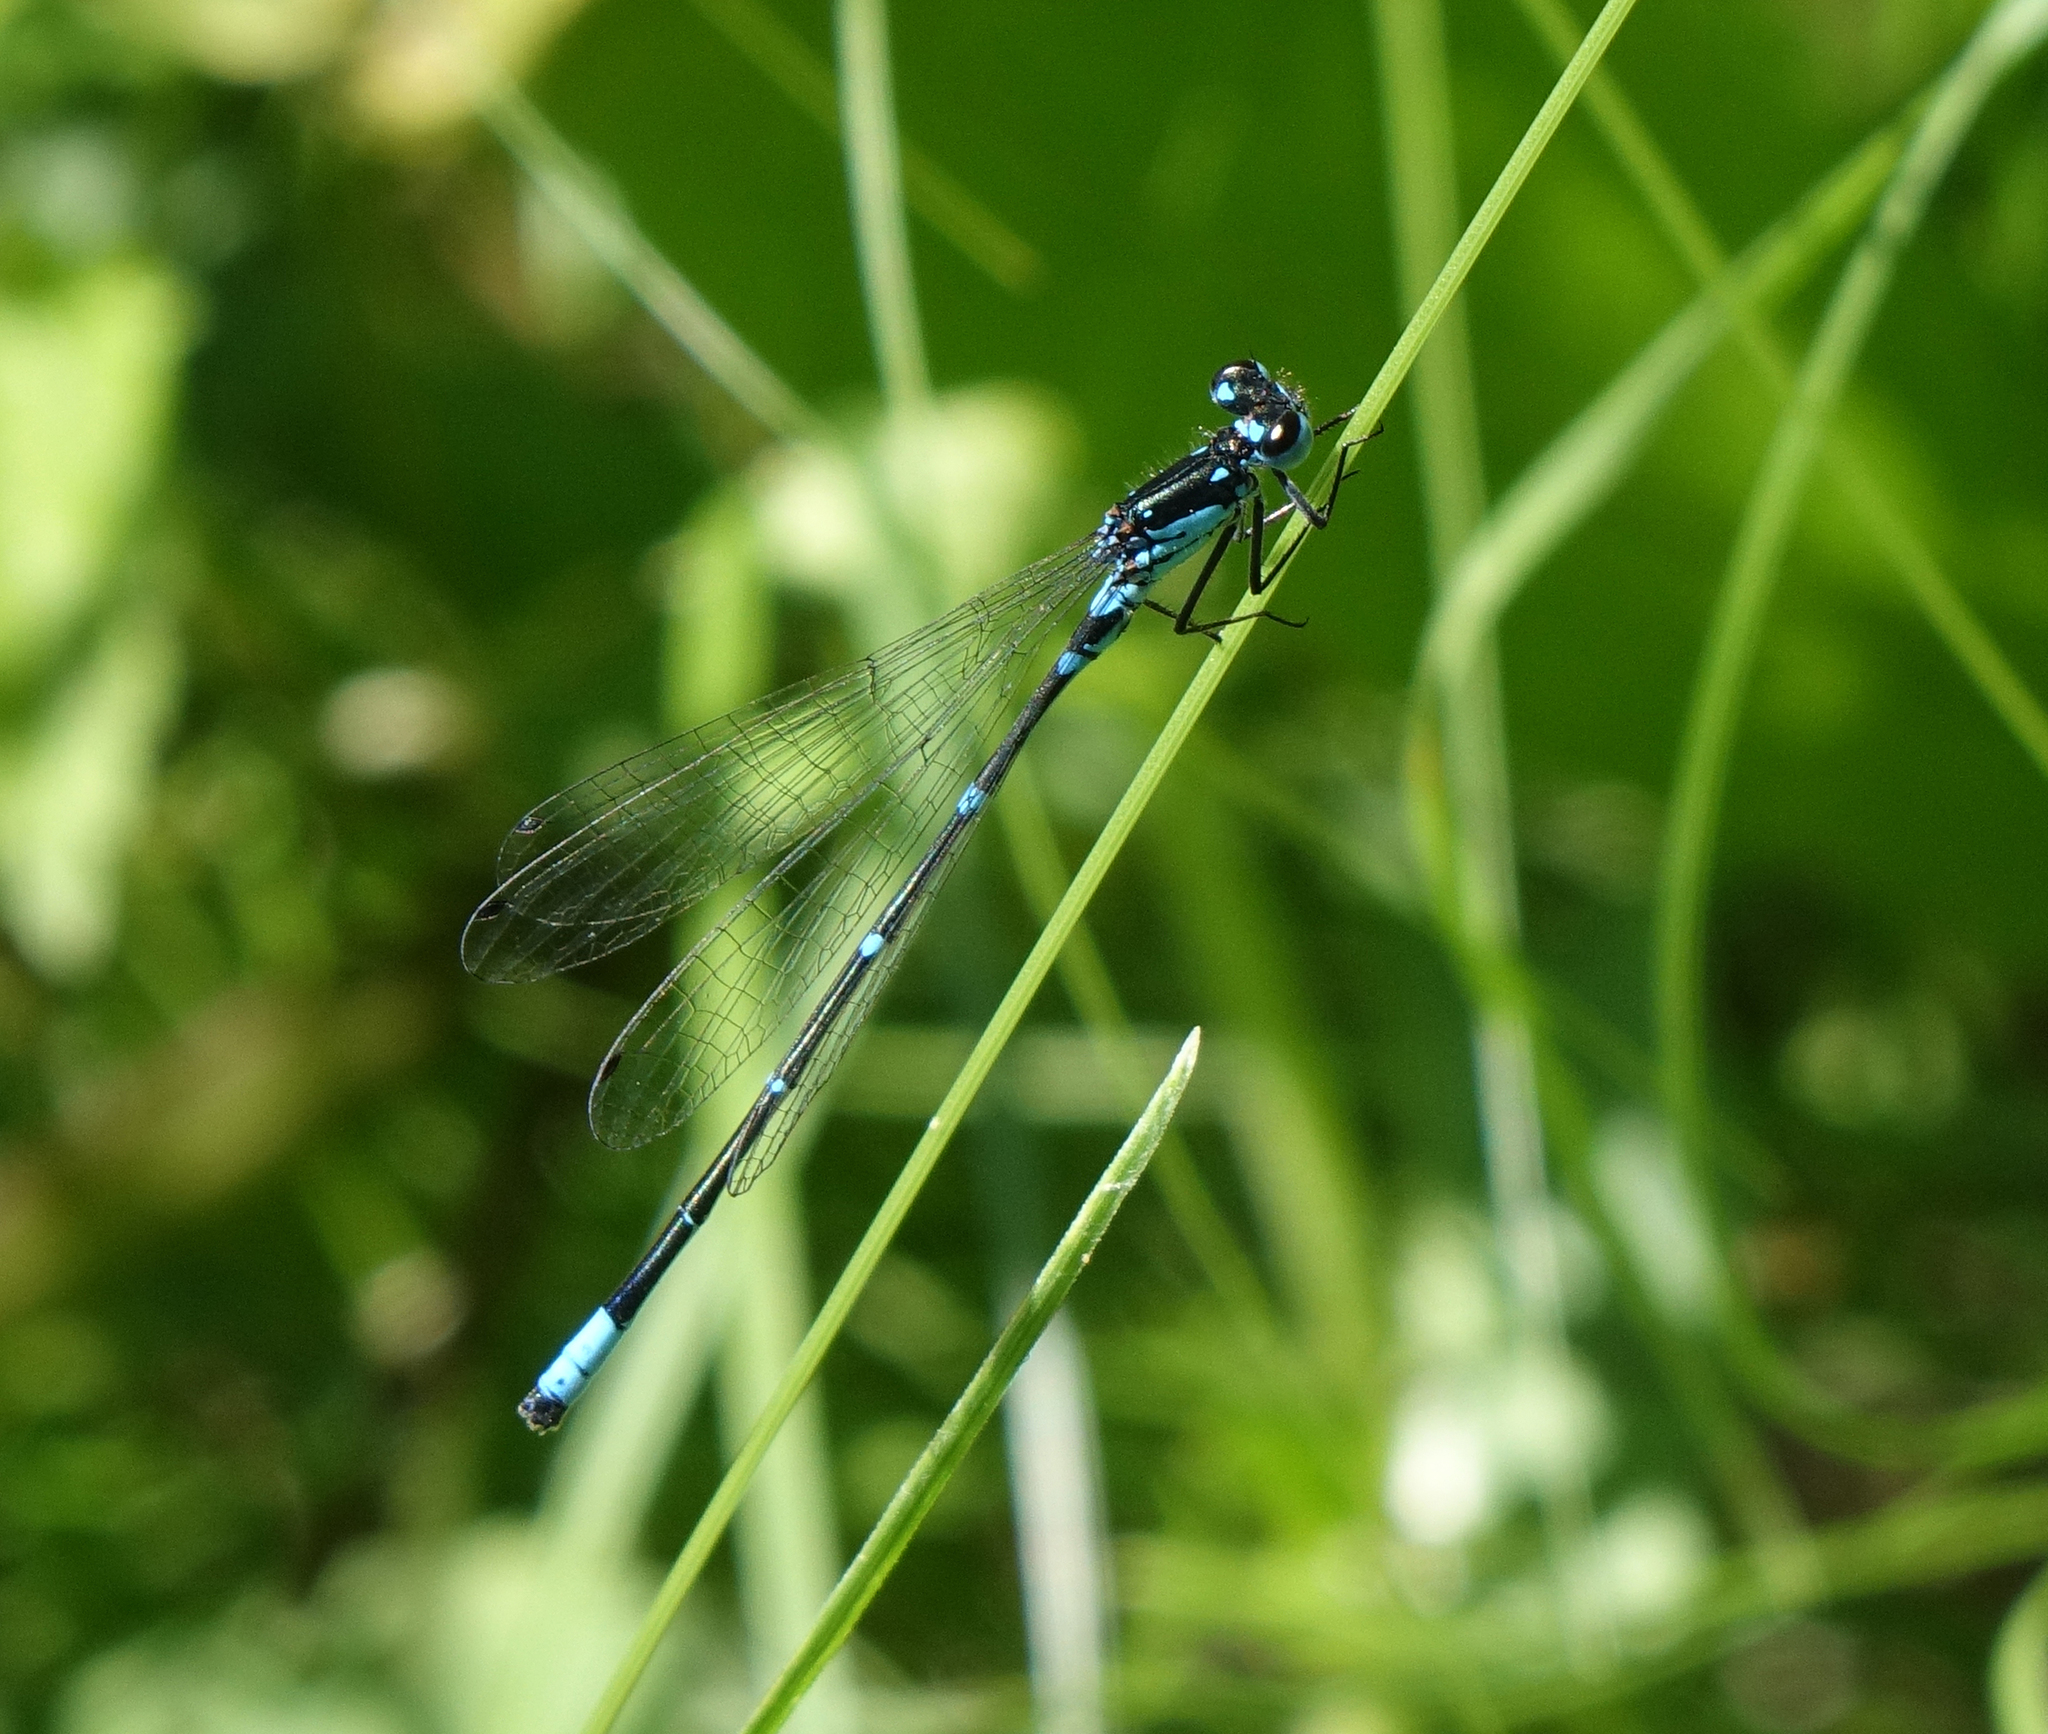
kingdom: Animalia
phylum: Arthropoda
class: Insecta
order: Odonata
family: Coenagrionidae
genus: Coenagrion
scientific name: Coenagrion pulchellum
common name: Variable bluet
